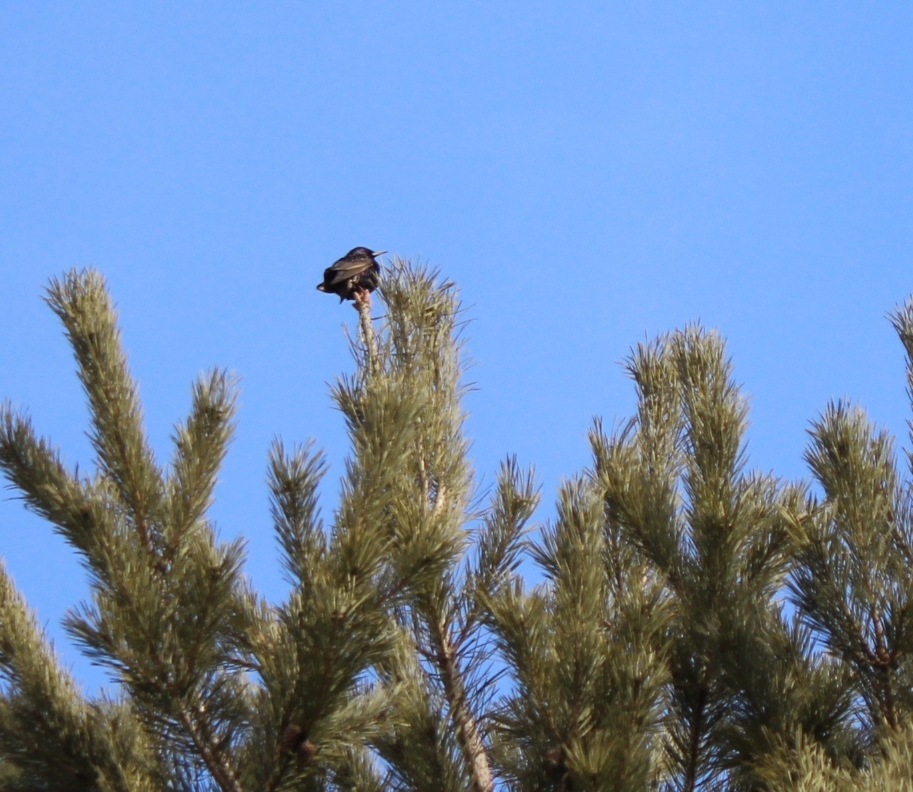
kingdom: Animalia
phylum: Chordata
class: Aves
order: Passeriformes
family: Sturnidae
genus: Sturnus
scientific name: Sturnus vulgaris
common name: Common starling
